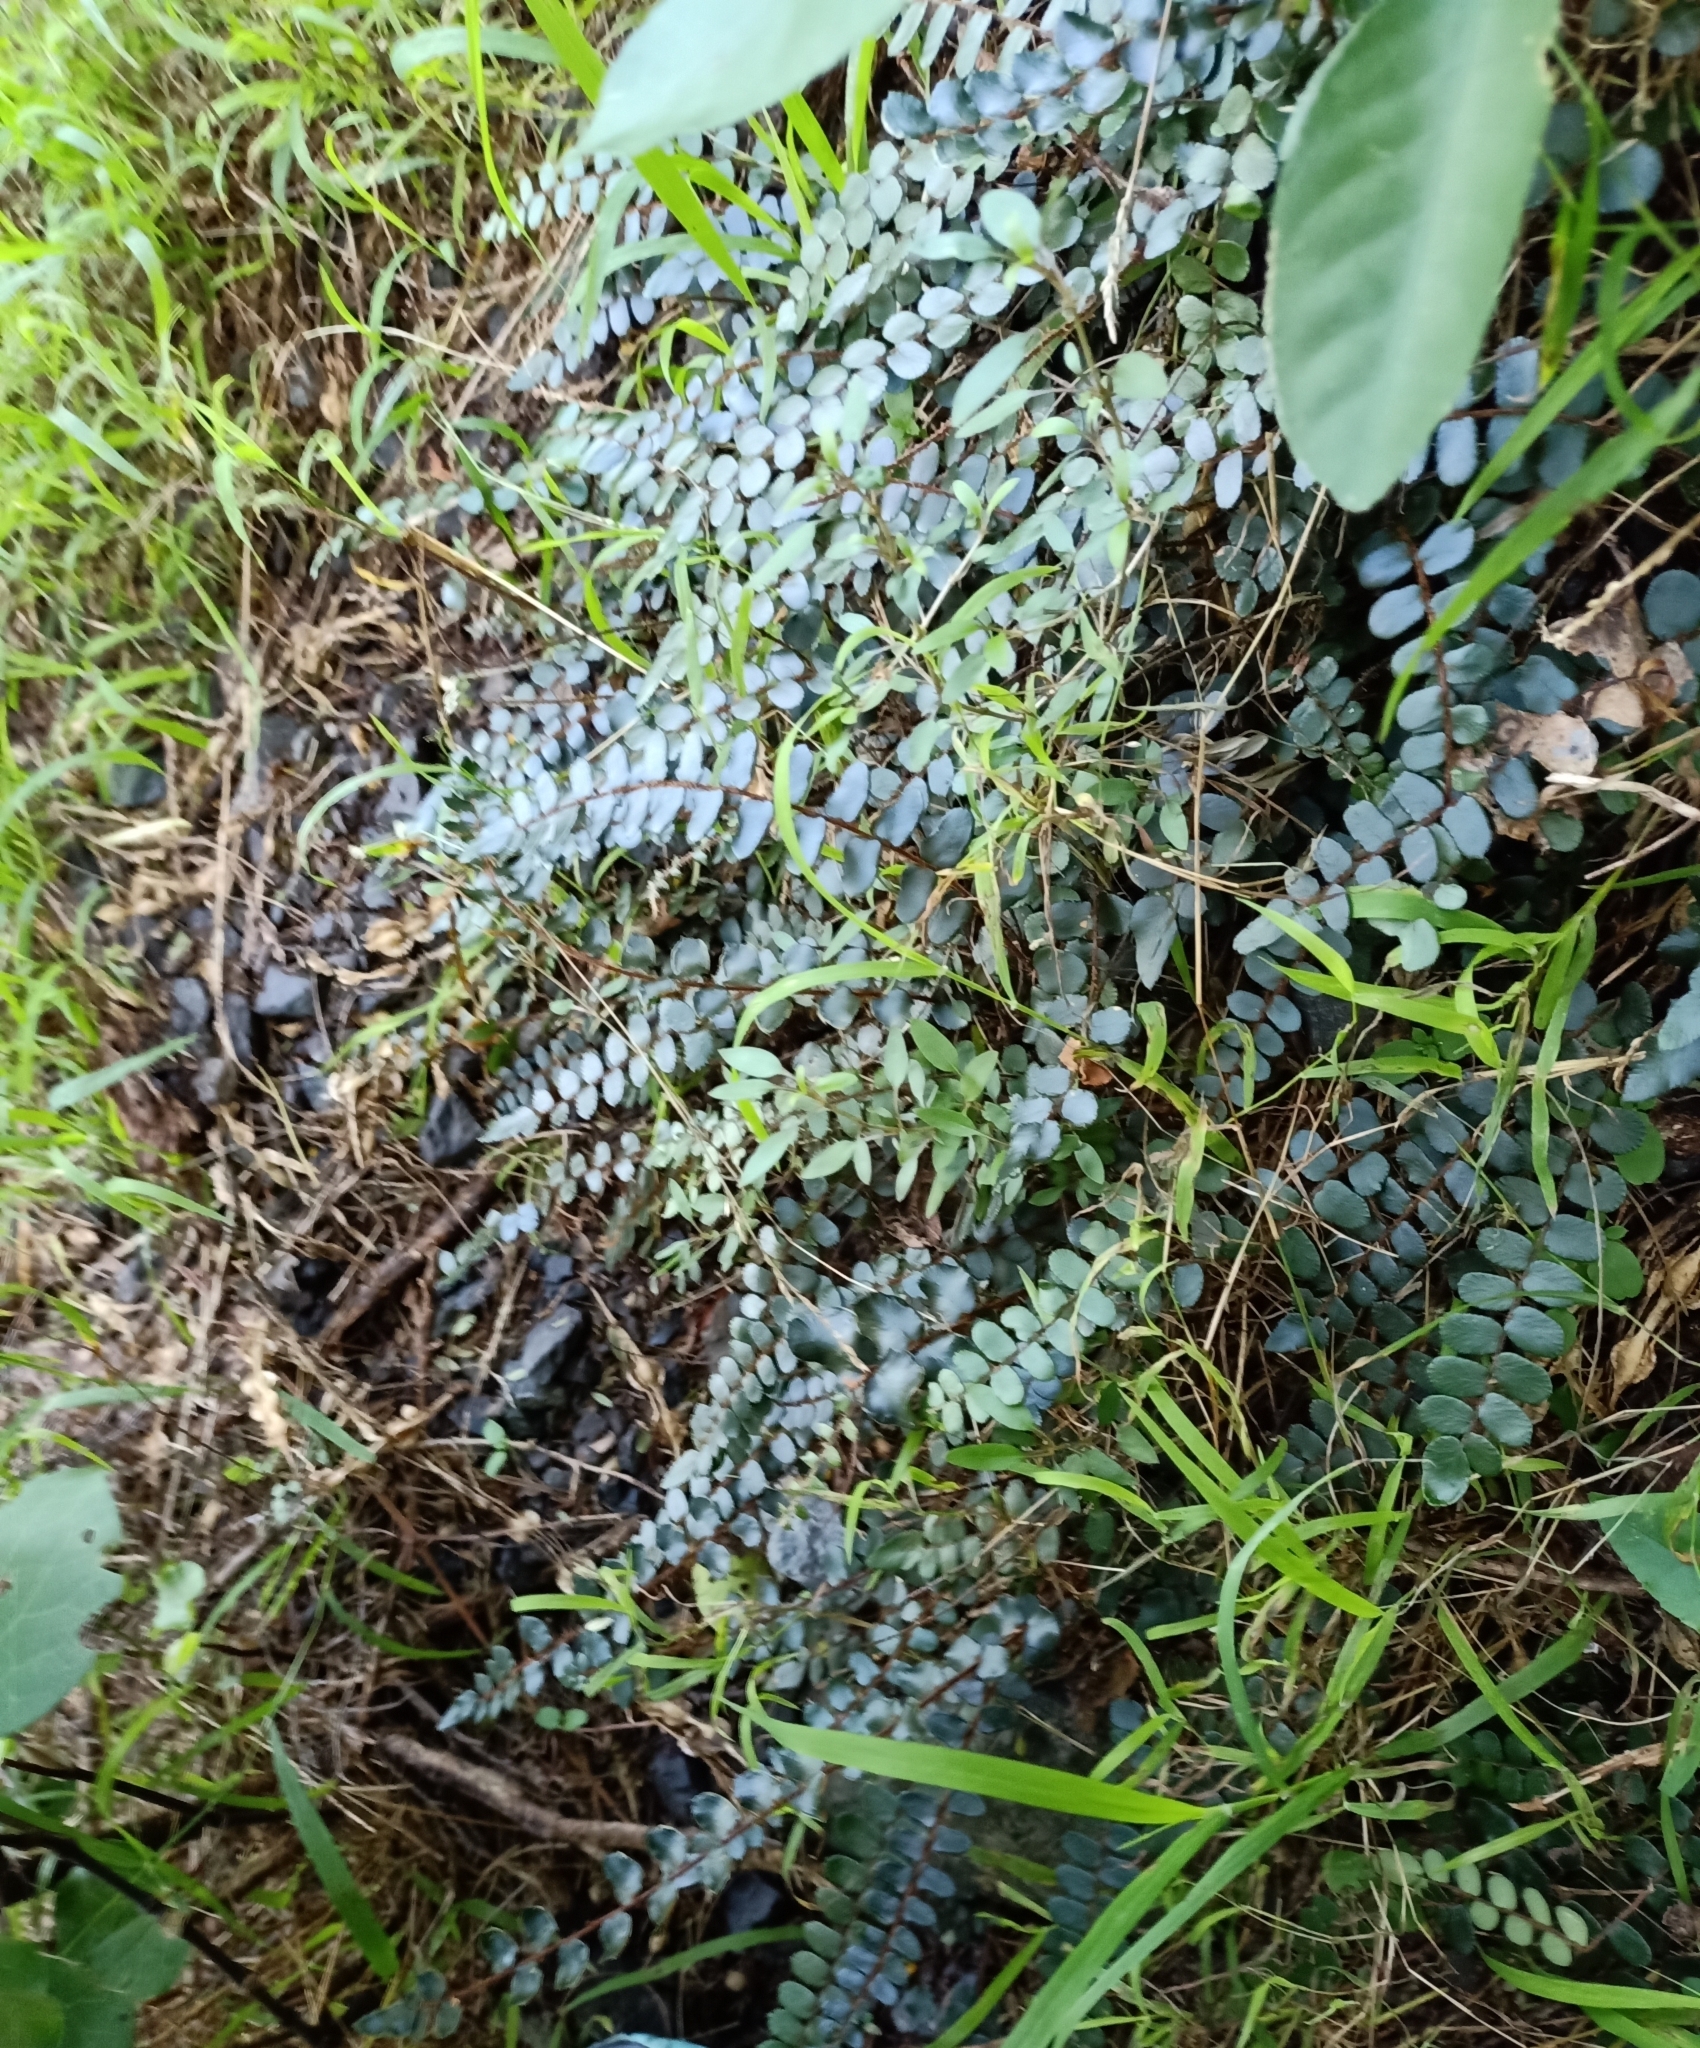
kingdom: Plantae
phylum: Tracheophyta
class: Polypodiopsida
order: Polypodiales
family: Pteridaceae
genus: Pellaea
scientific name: Pellaea rotundifolia
